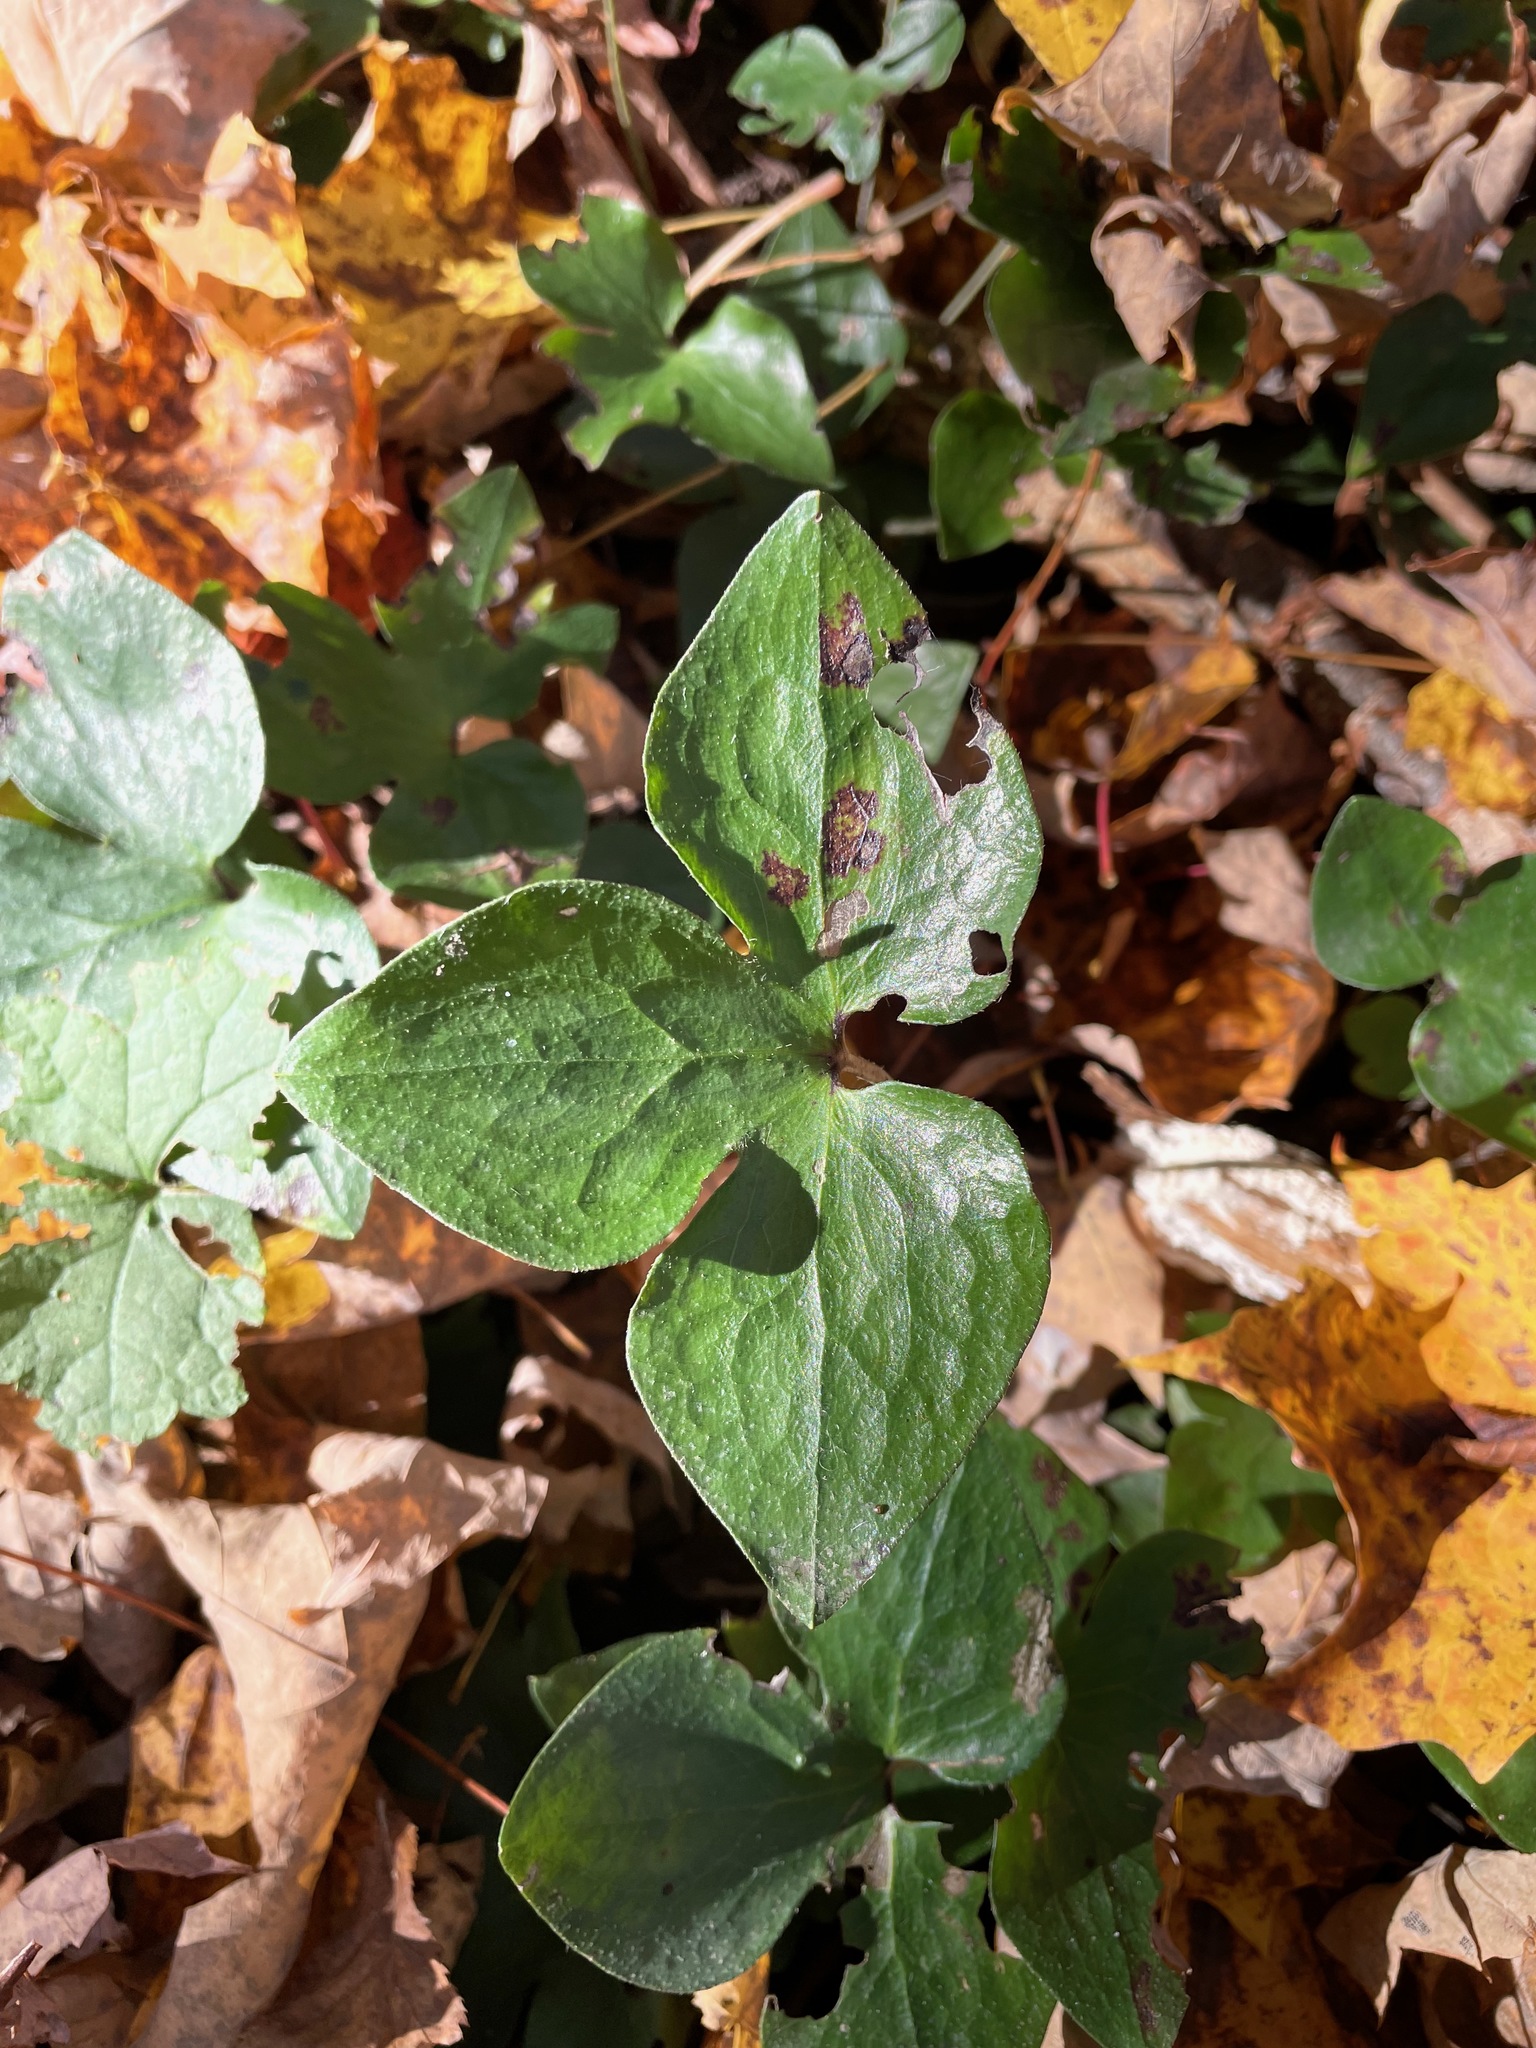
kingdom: Plantae
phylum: Tracheophyta
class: Magnoliopsida
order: Ranunculales
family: Ranunculaceae
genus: Hepatica
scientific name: Hepatica acutiloba
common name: Sharp-lobed hepatica
